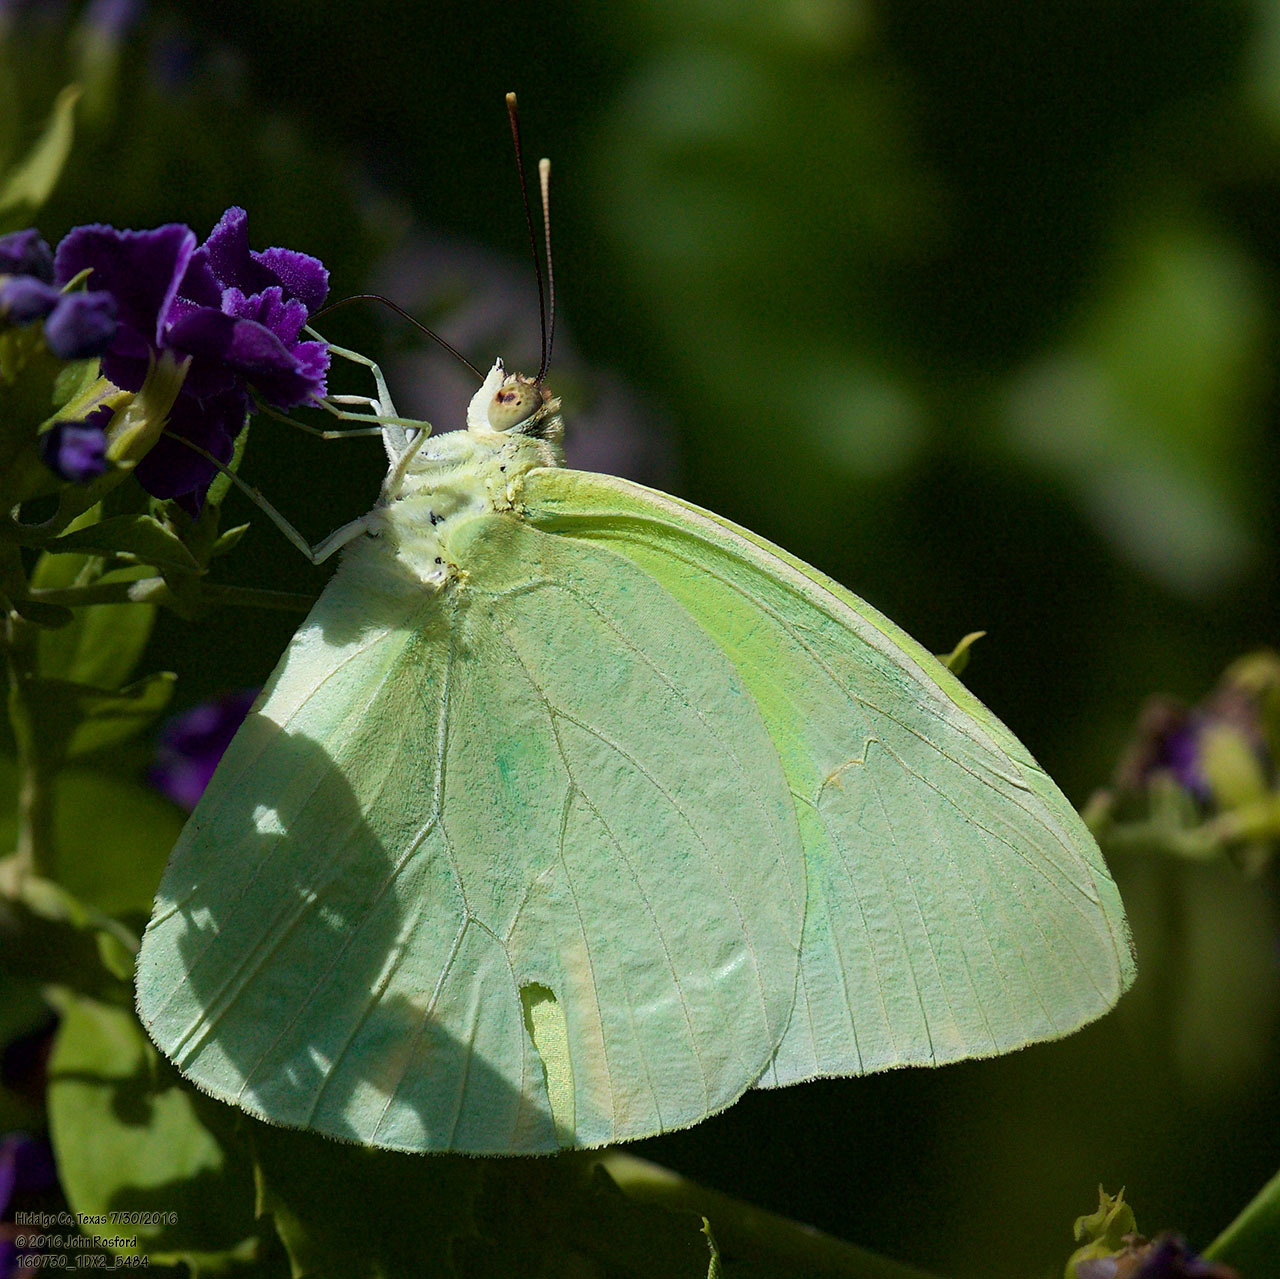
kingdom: Animalia
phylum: Arthropoda
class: Insecta
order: Lepidoptera
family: Pieridae
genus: Aphrissa
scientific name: Aphrissa statira
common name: Statira sulphur
